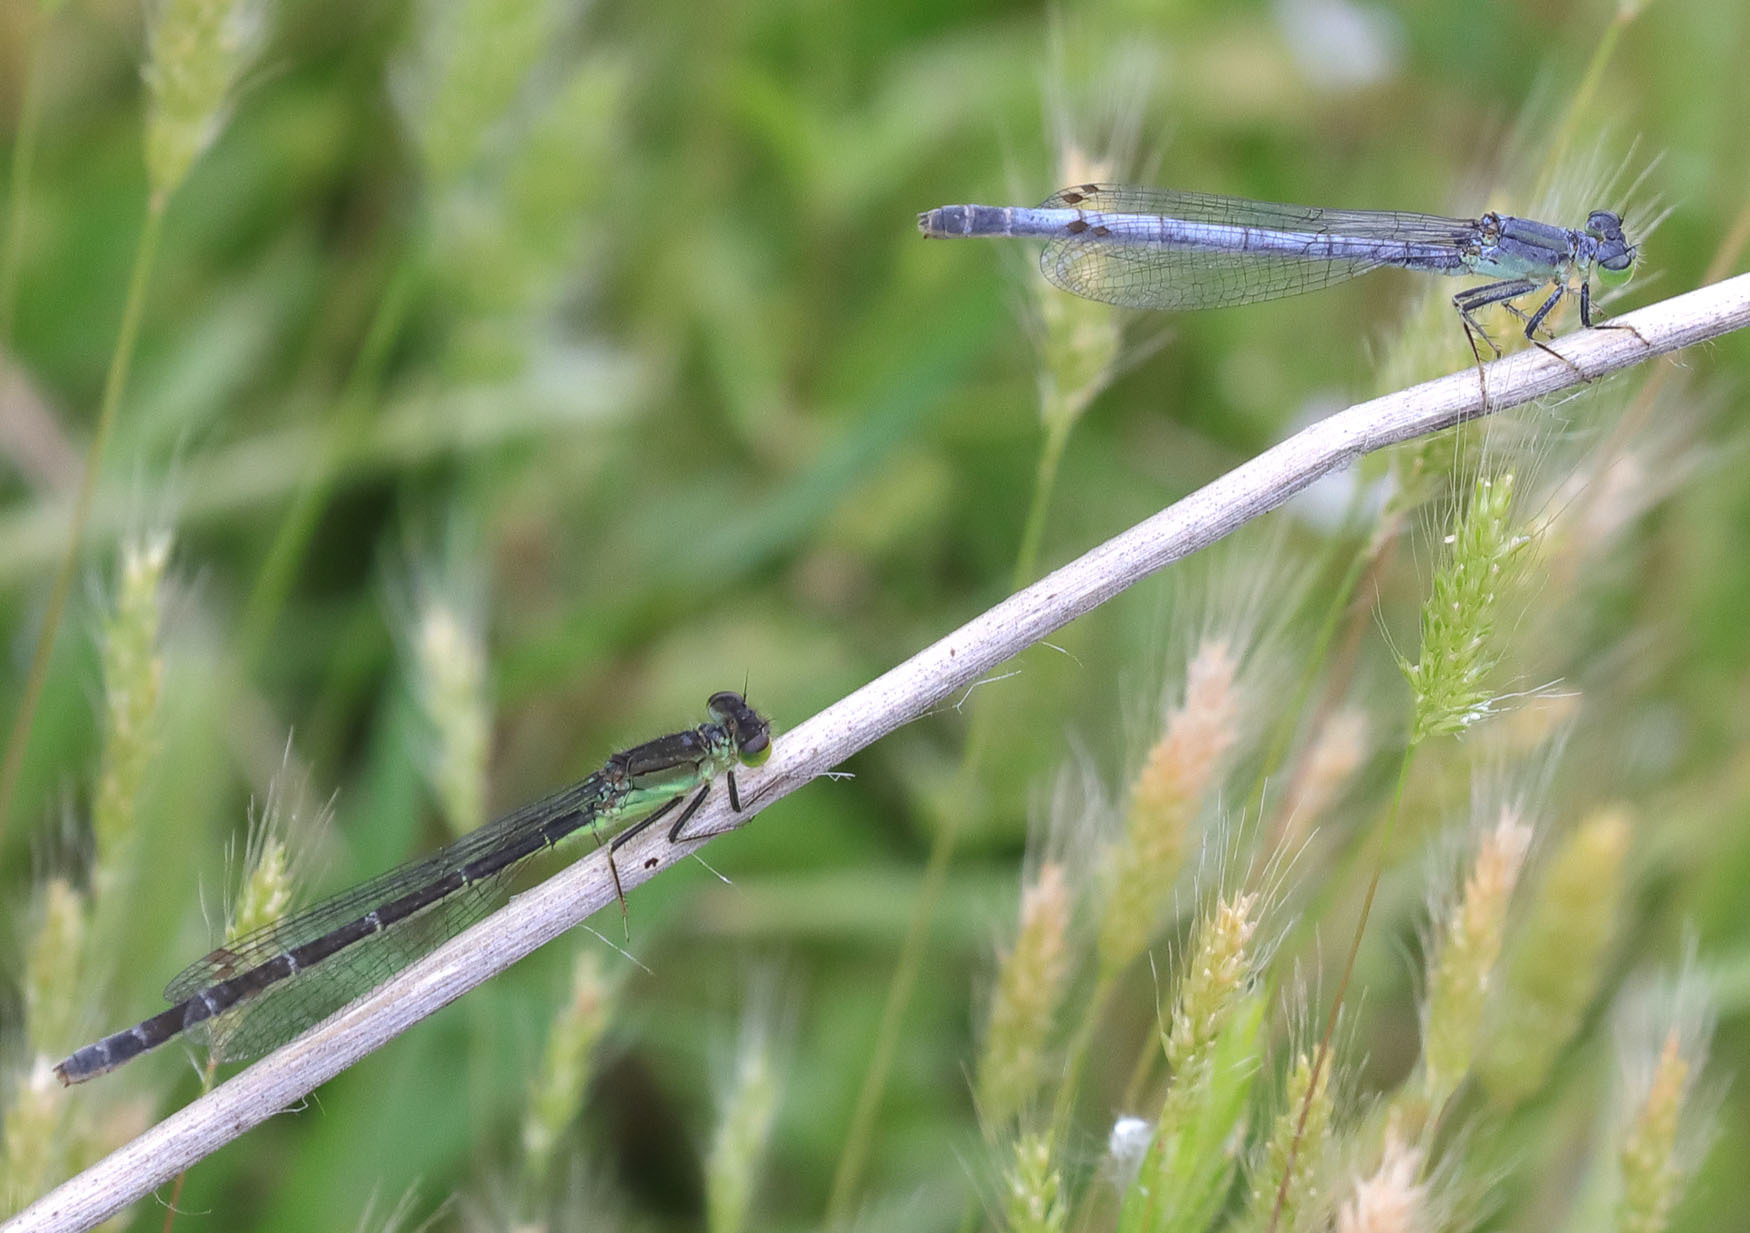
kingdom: Animalia
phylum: Arthropoda
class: Insecta
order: Odonata
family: Coenagrionidae
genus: Ischnura
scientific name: Ischnura perparva
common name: Western forktail
